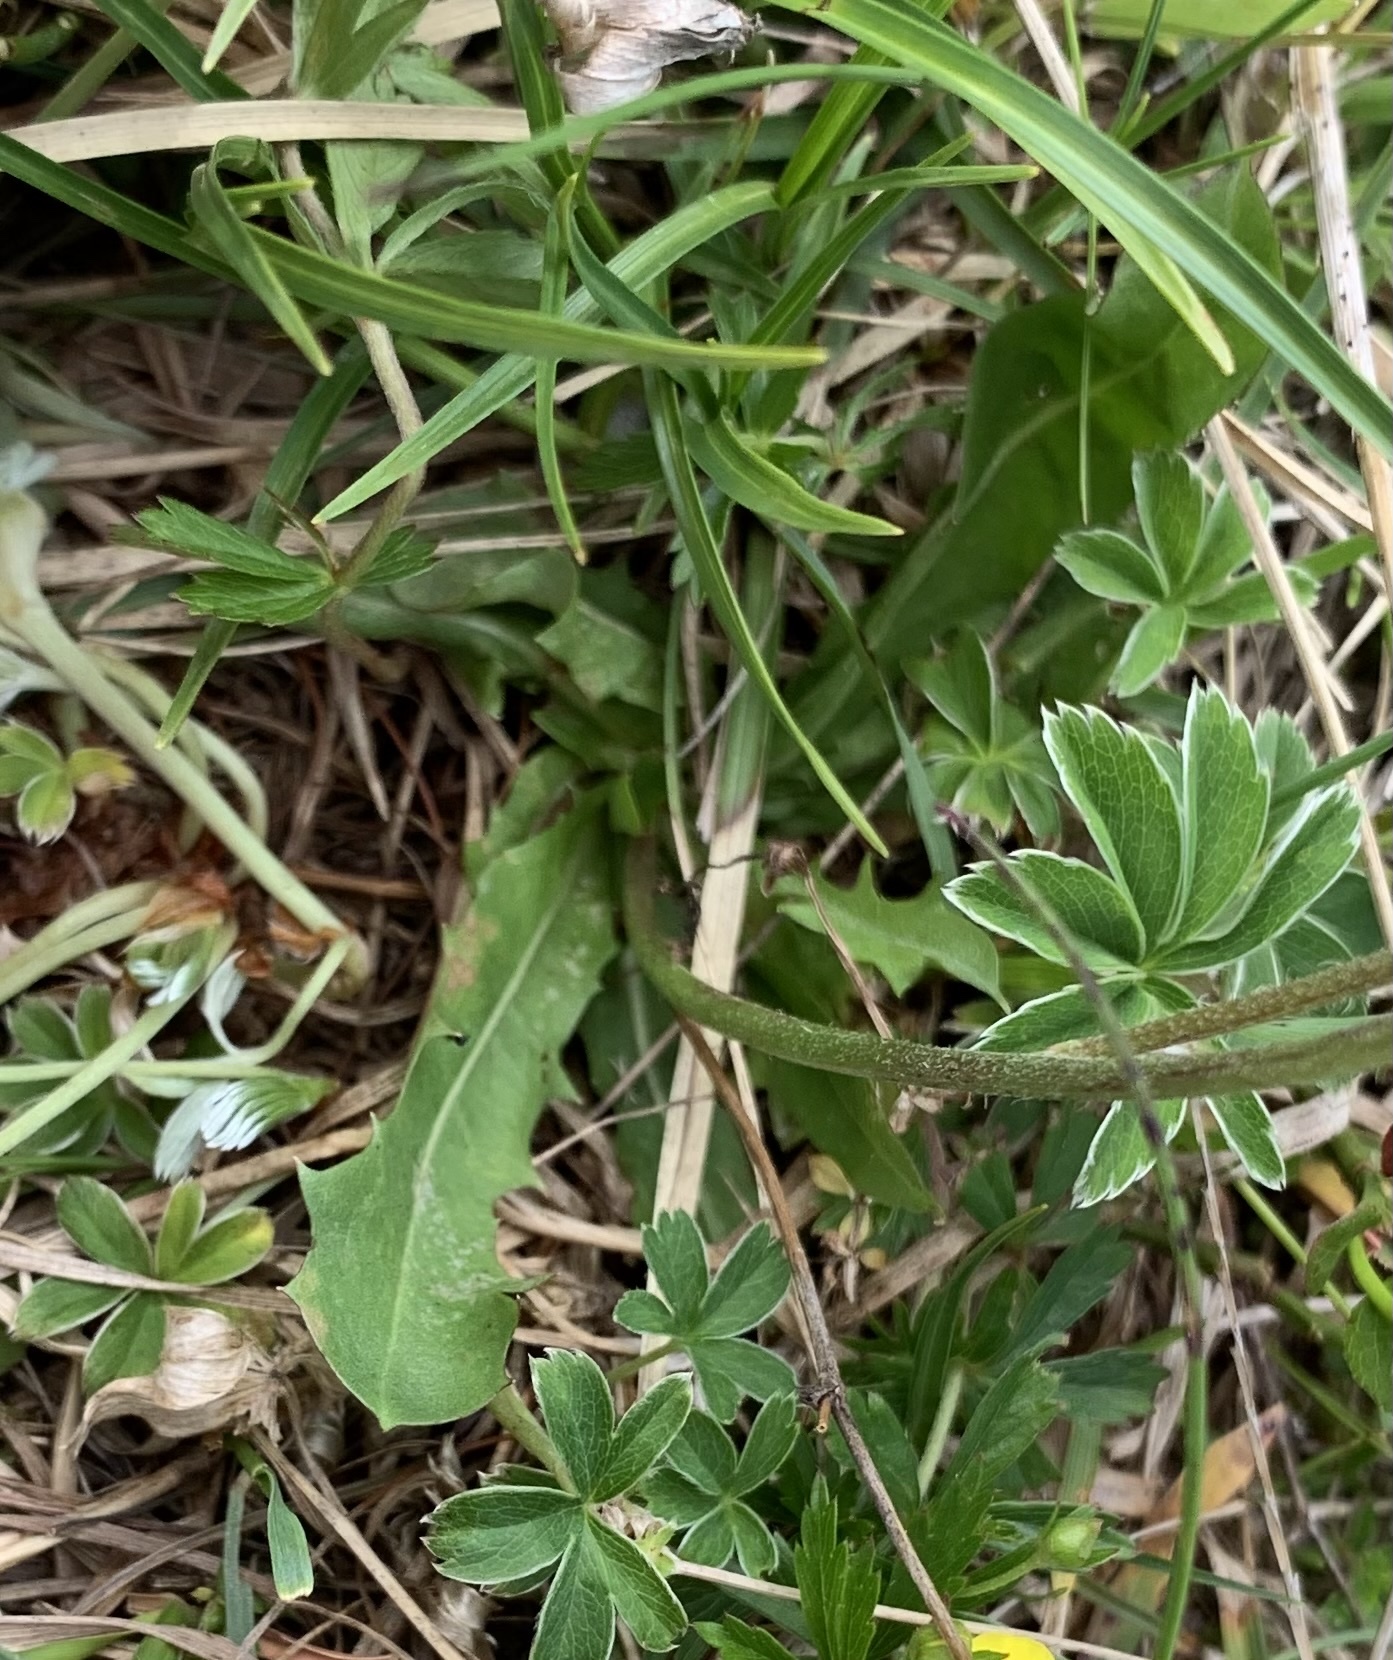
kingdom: Plantae
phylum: Tracheophyta
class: Magnoliopsida
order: Asterales
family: Asteraceae
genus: Crepis
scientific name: Crepis aurea
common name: Golden hawk's-beard
